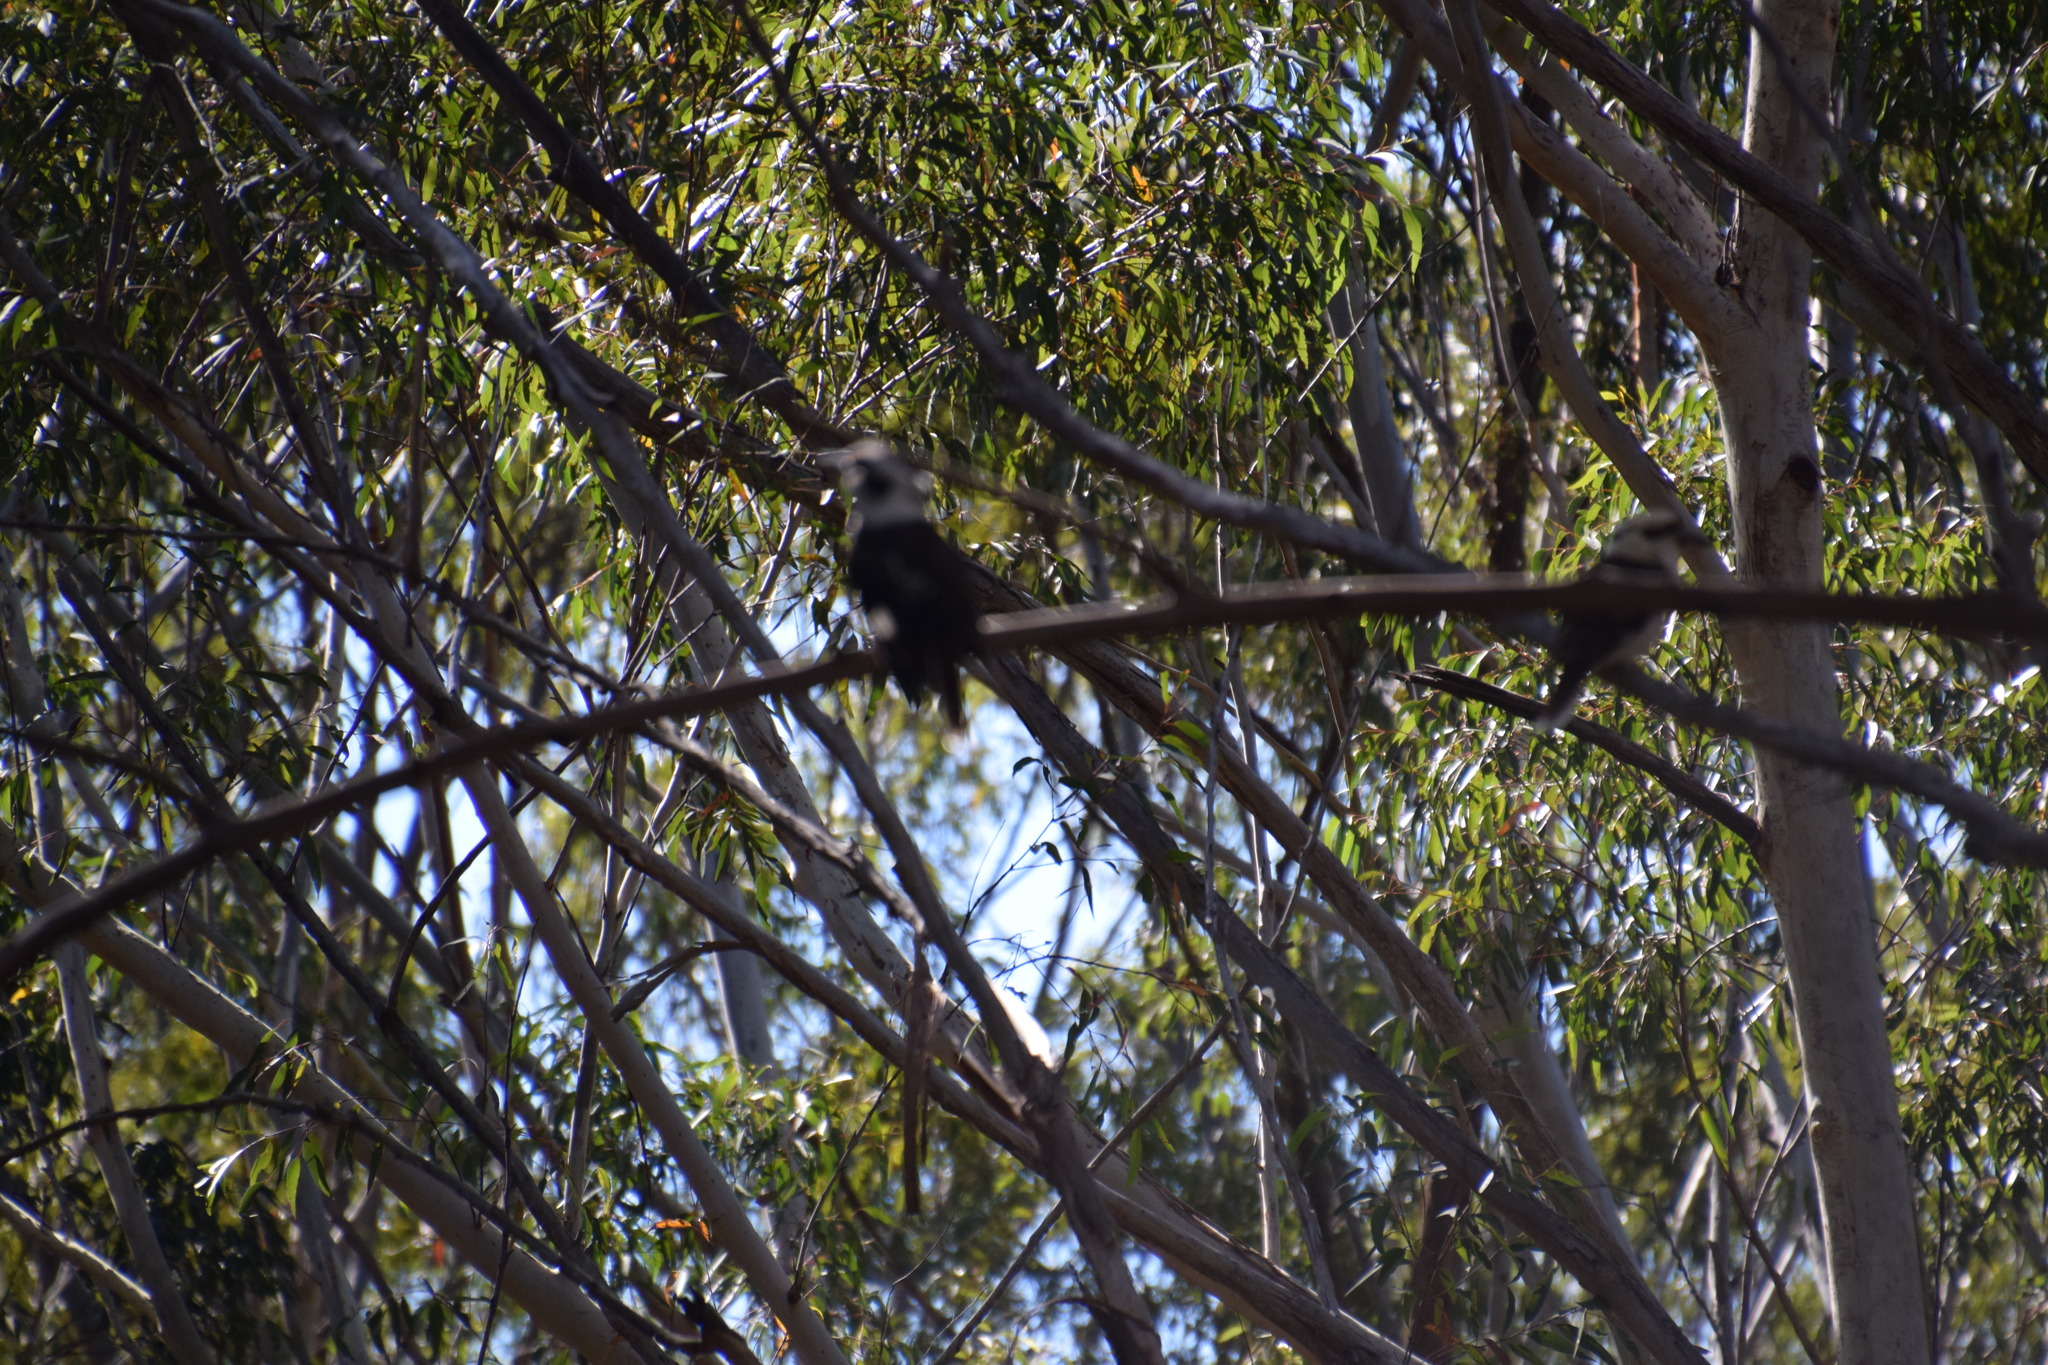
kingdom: Animalia
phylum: Chordata
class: Aves
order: Coraciiformes
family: Alcedinidae
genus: Dacelo
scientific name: Dacelo novaeguineae
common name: Laughing kookaburra
